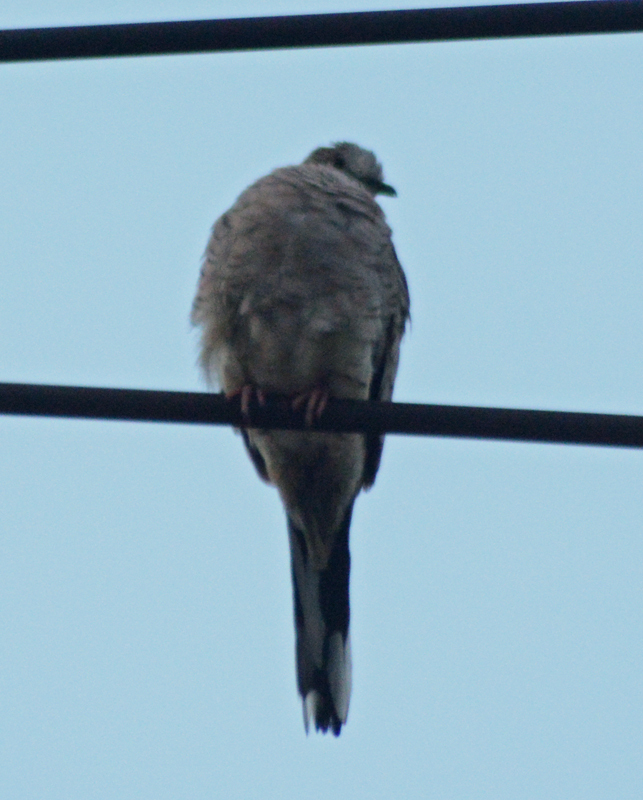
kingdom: Animalia
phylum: Chordata
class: Aves
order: Columbiformes
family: Columbidae
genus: Columbina
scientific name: Columbina inca
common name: Inca dove
